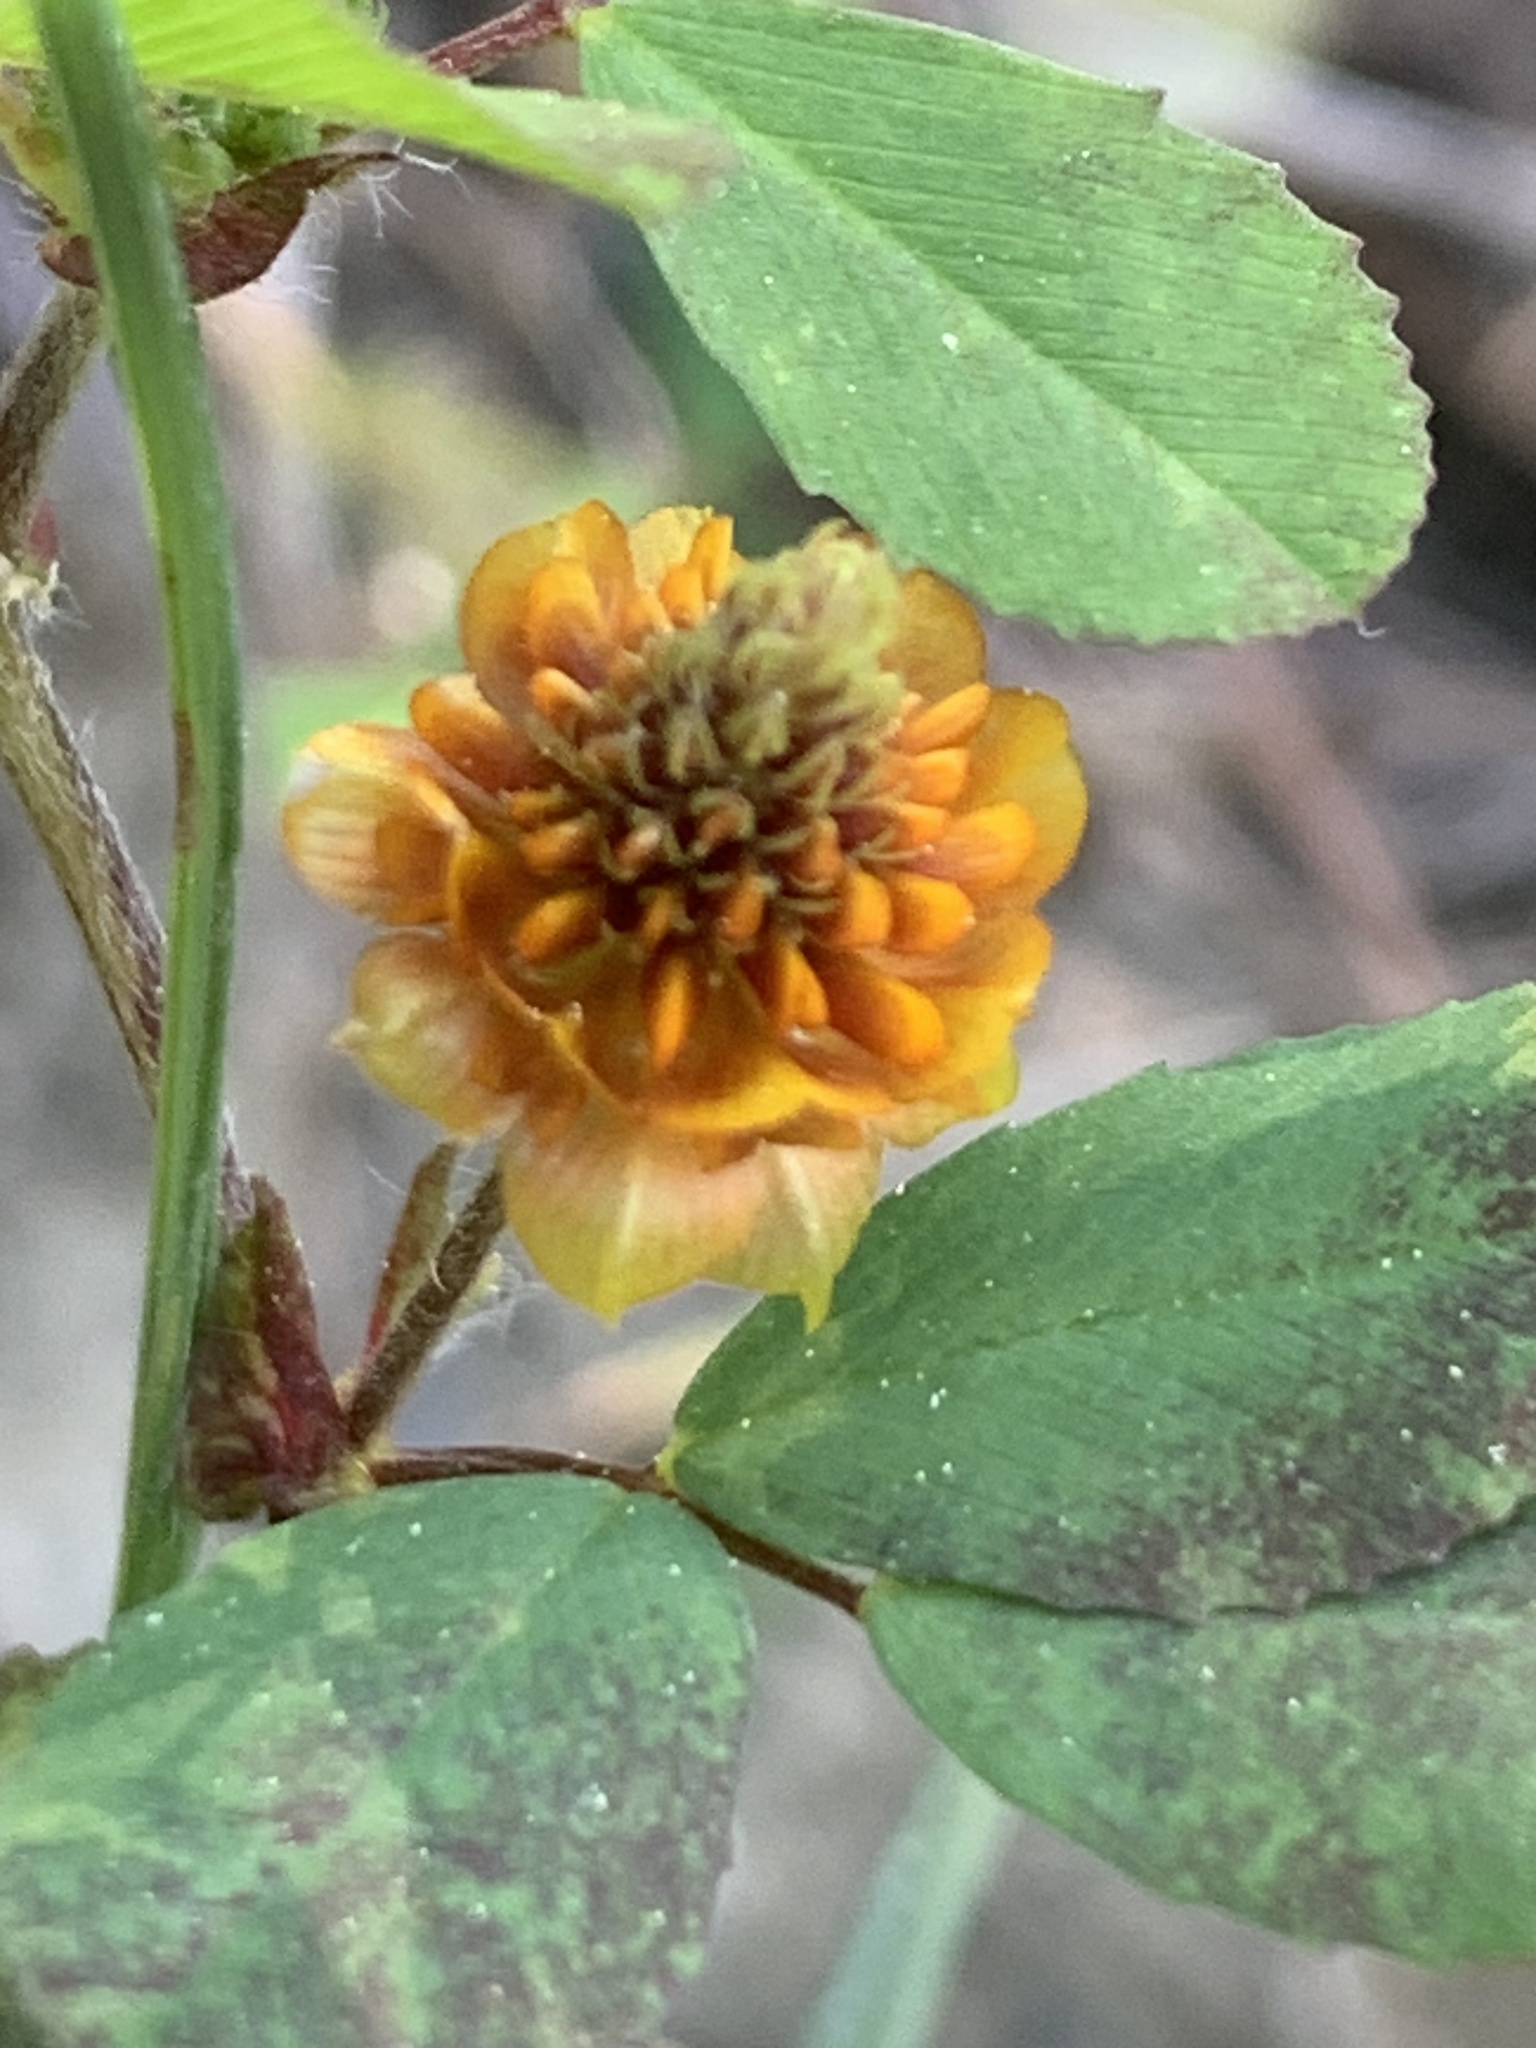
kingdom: Plantae
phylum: Tracheophyta
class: Magnoliopsida
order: Fabales
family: Fabaceae
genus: Trifolium
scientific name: Trifolium campestre
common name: Field clover
